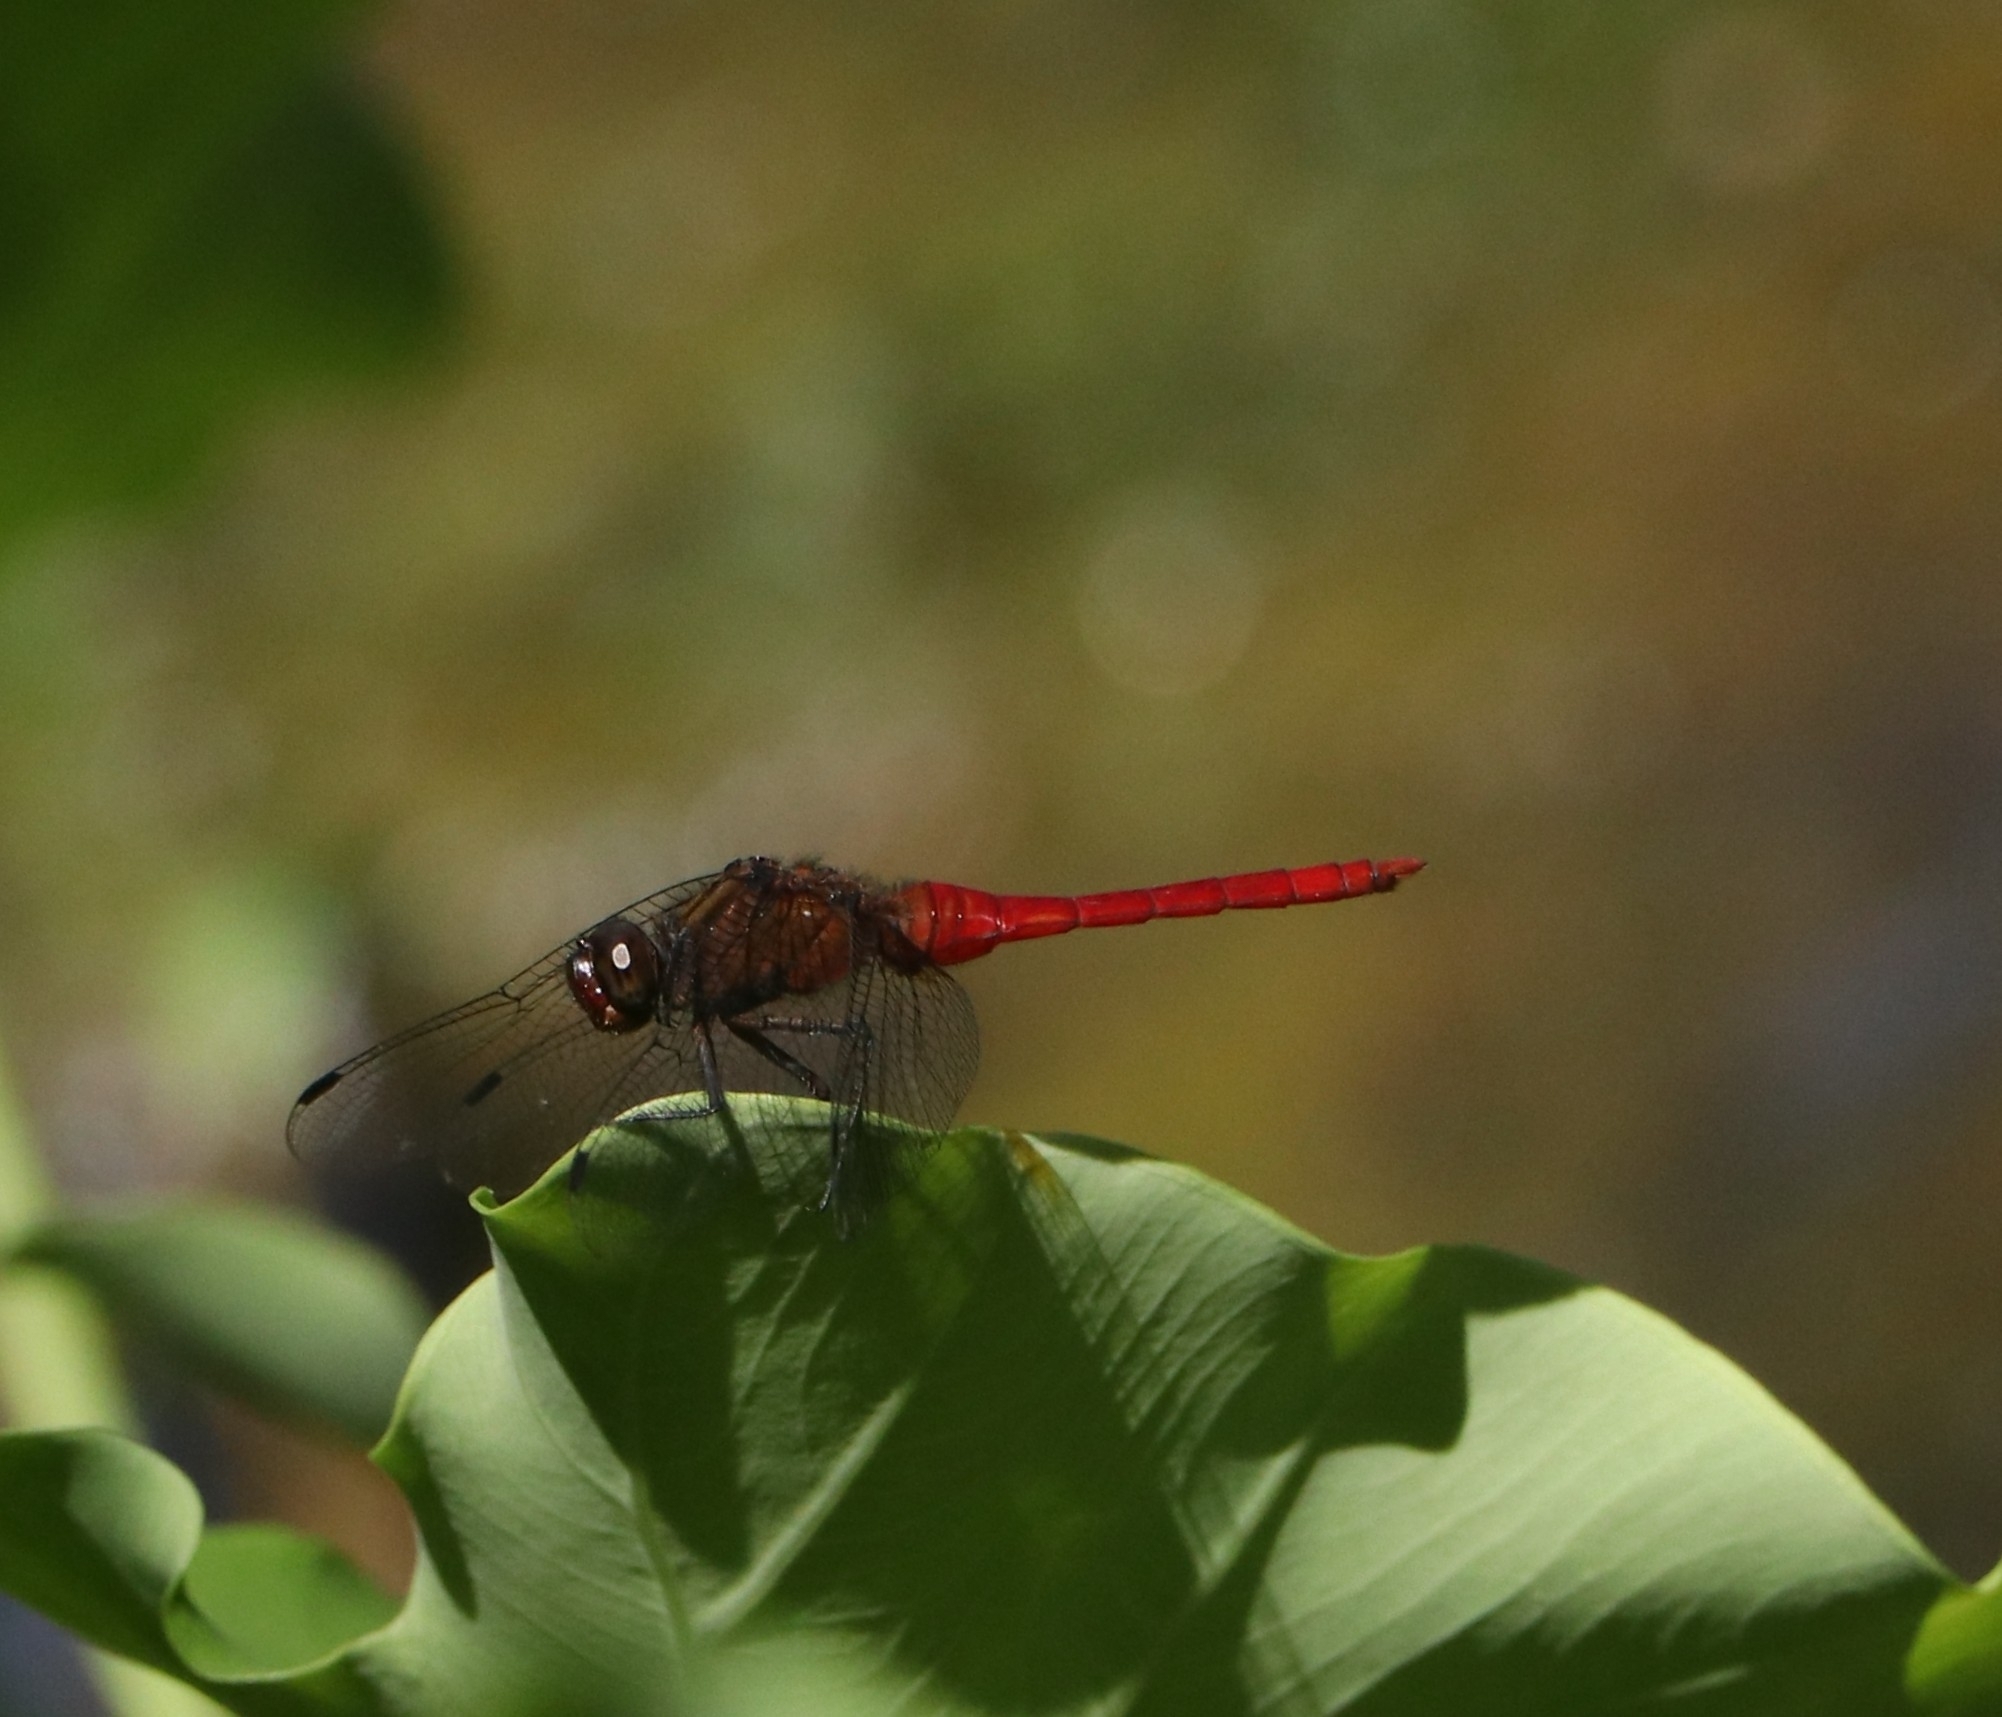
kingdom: Animalia
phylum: Arthropoda
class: Insecta
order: Odonata
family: Libellulidae
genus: Orthetrum
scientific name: Orthetrum chrysis
